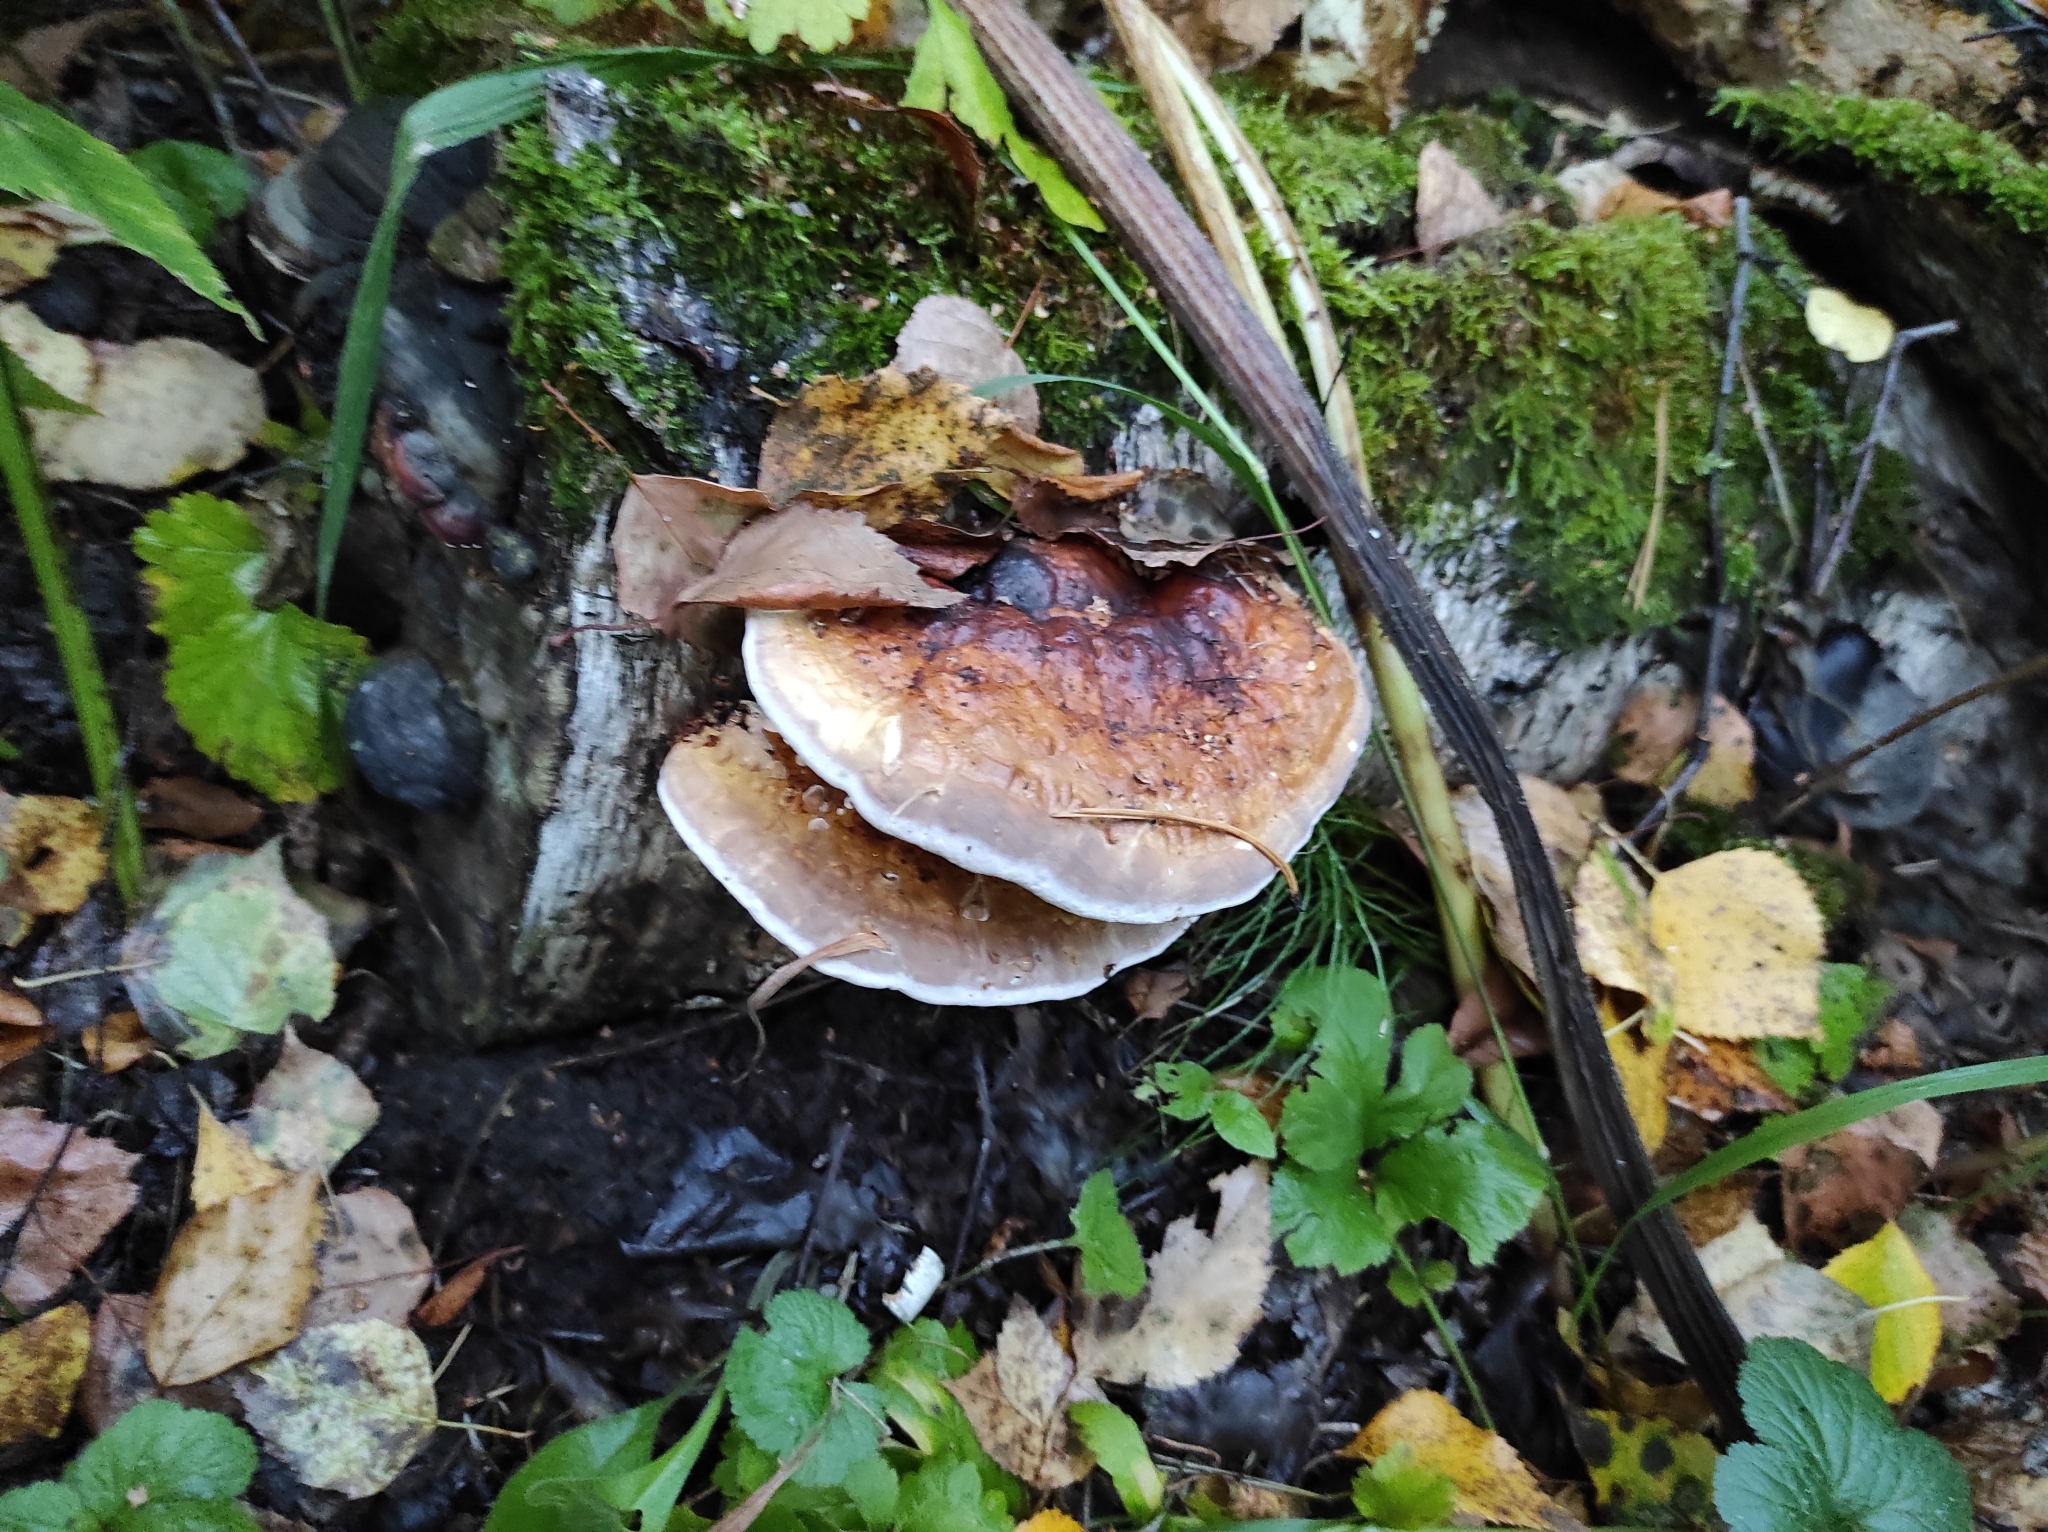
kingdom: Fungi
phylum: Basidiomycota
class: Agaricomycetes
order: Polyporales
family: Fomitopsidaceae
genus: Fomitopsis
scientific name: Fomitopsis pinicola
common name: Red-belted bracket
